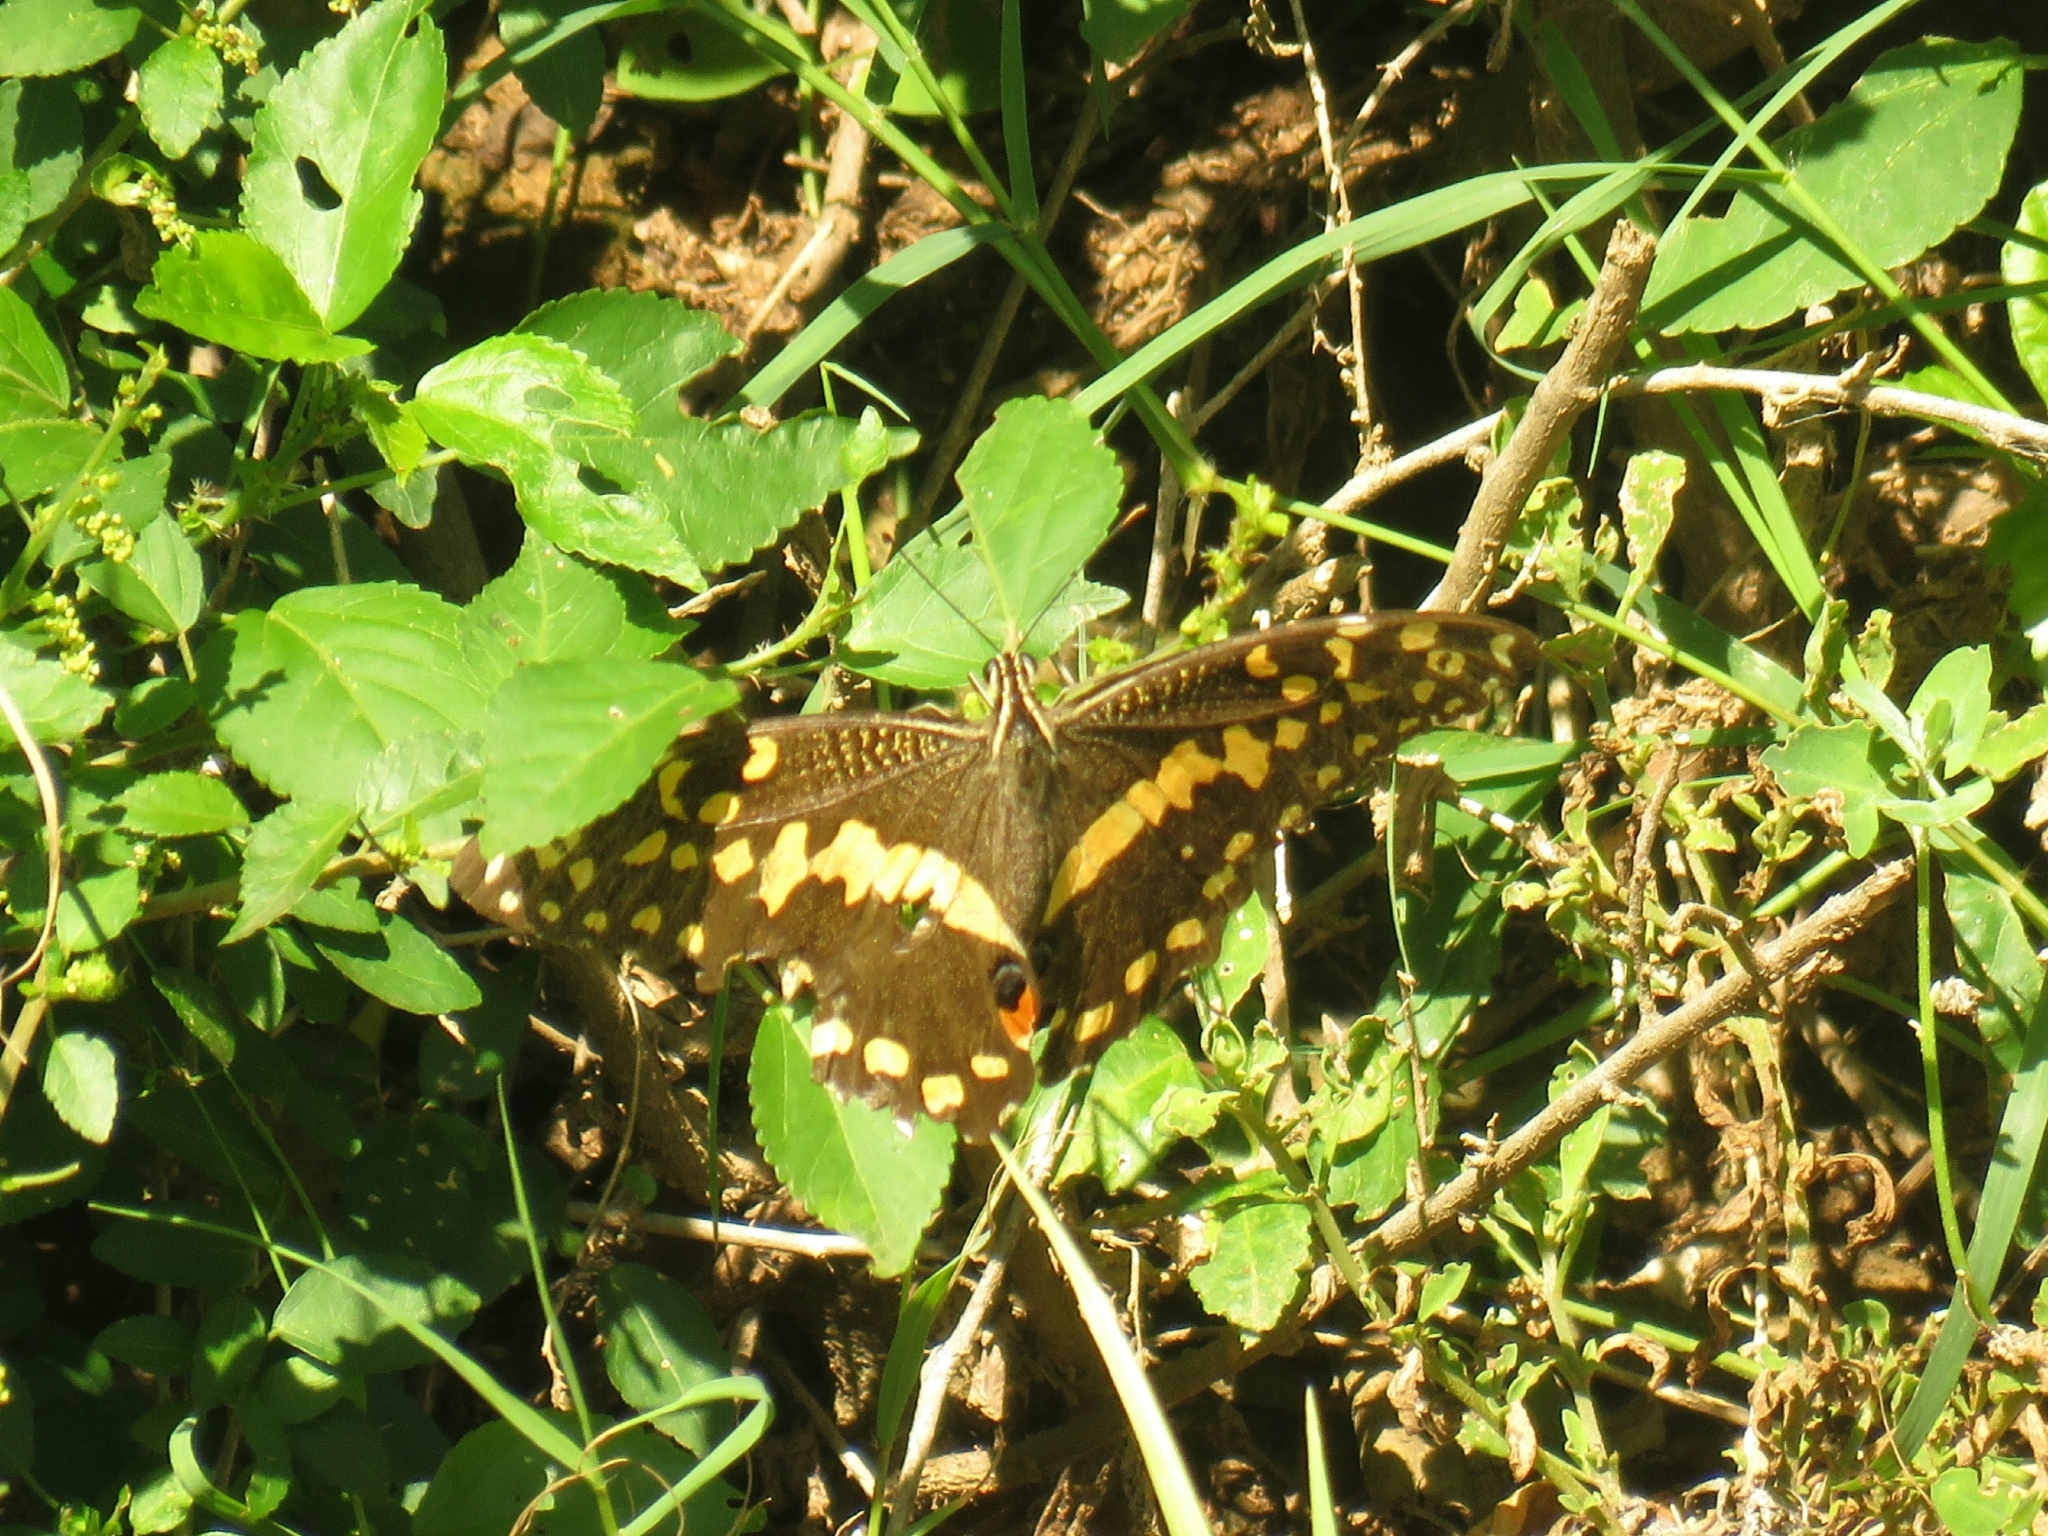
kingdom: Animalia
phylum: Arthropoda
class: Insecta
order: Lepidoptera
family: Papilionidae
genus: Papilio
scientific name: Papilio demodocus
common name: Christmas butterfly
